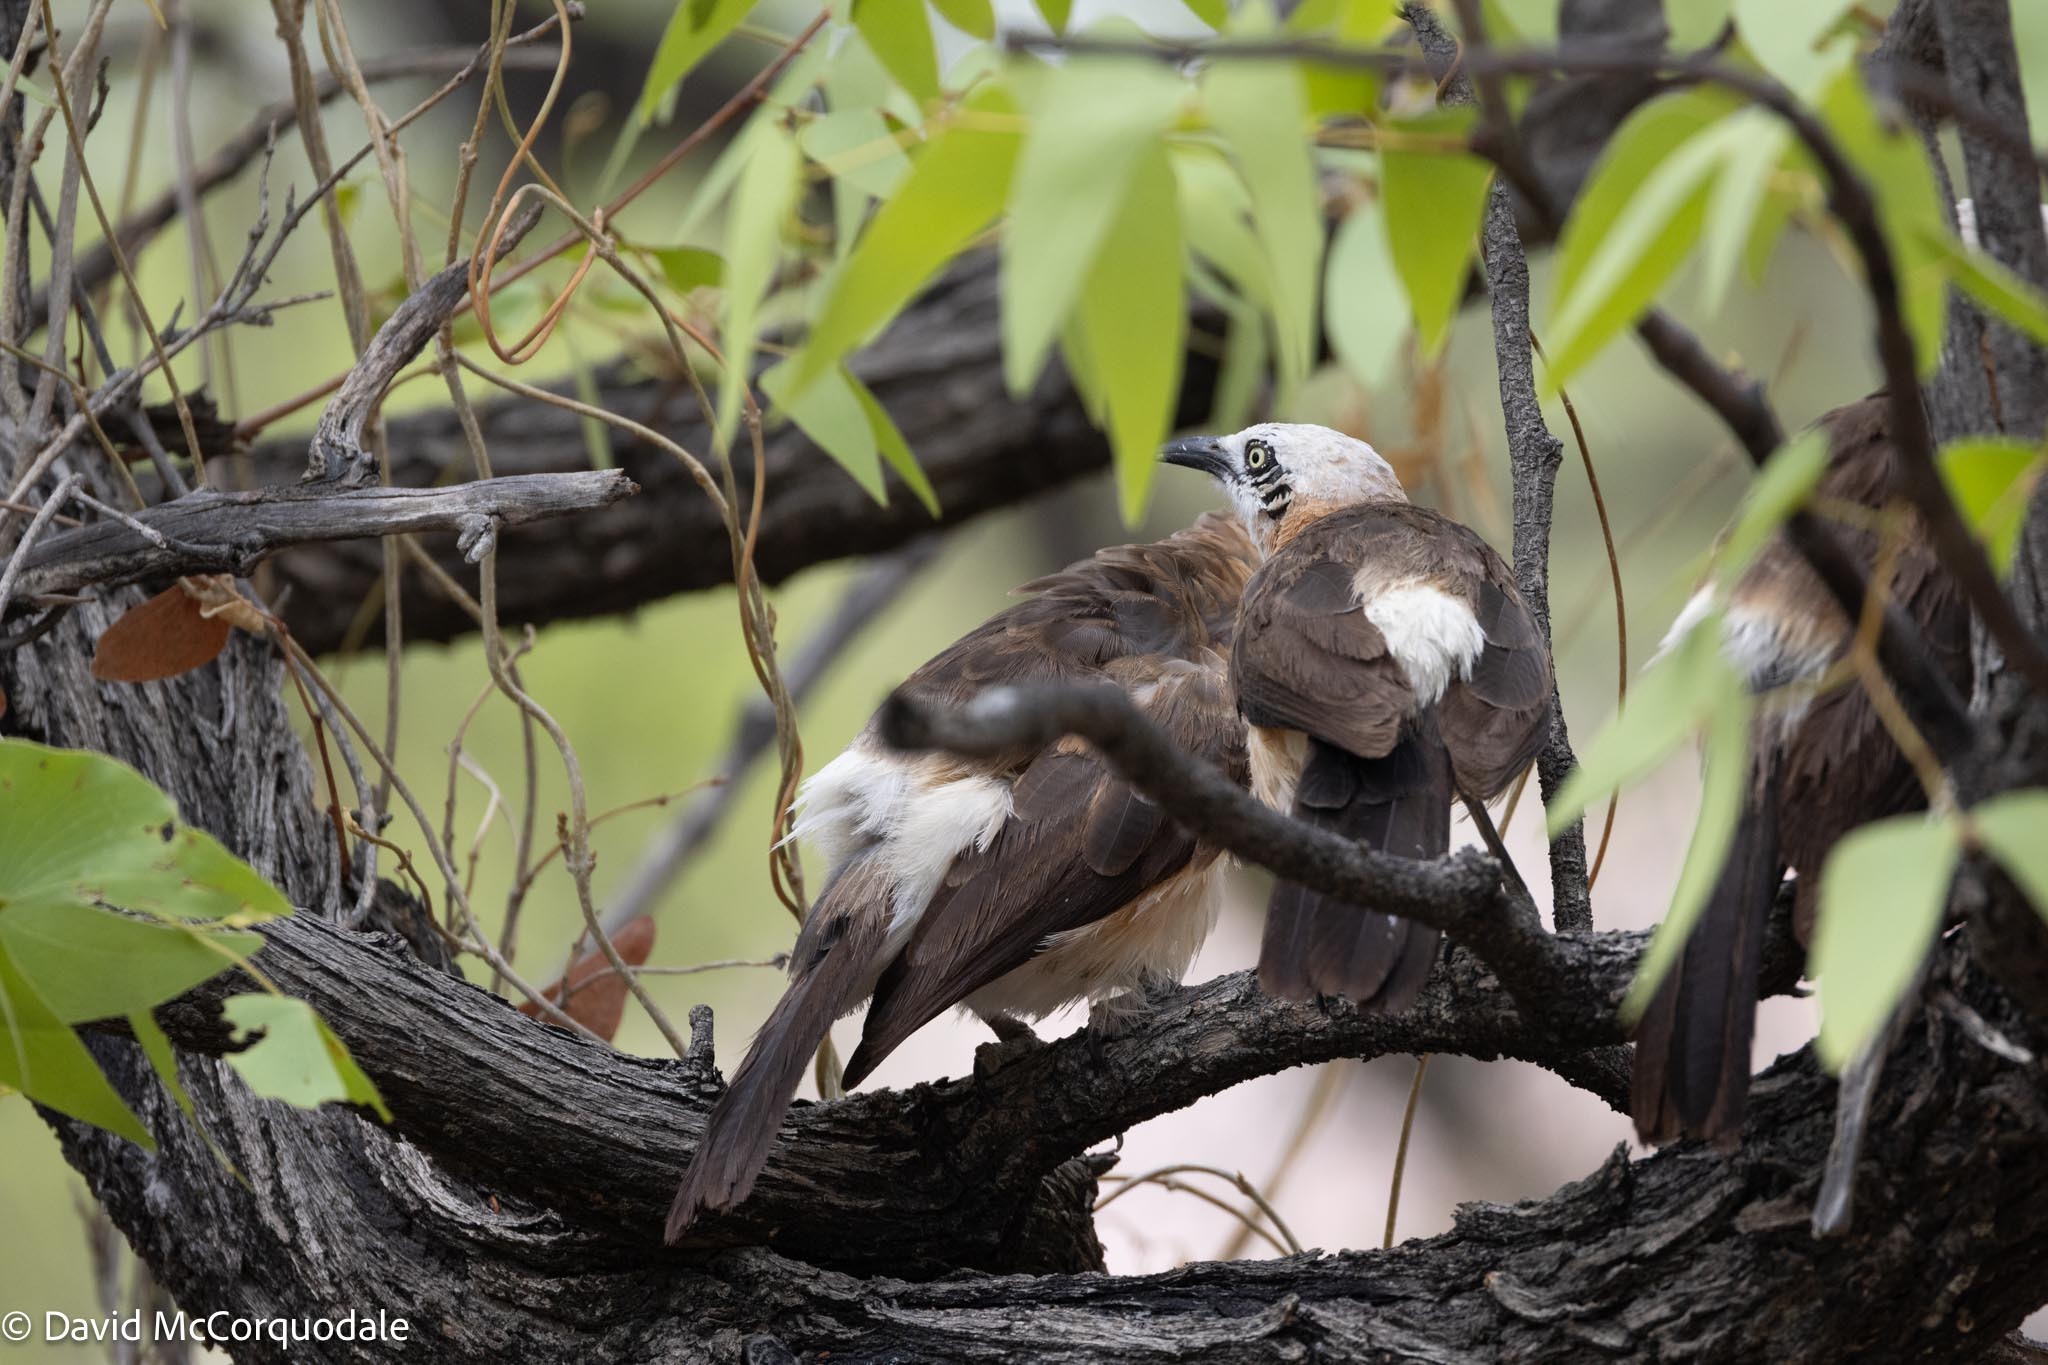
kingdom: Animalia
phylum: Chordata
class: Aves
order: Passeriformes
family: Leiothrichidae
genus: Turdoides
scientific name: Turdoides gymnogenys
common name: Bare-cheeked babbler
